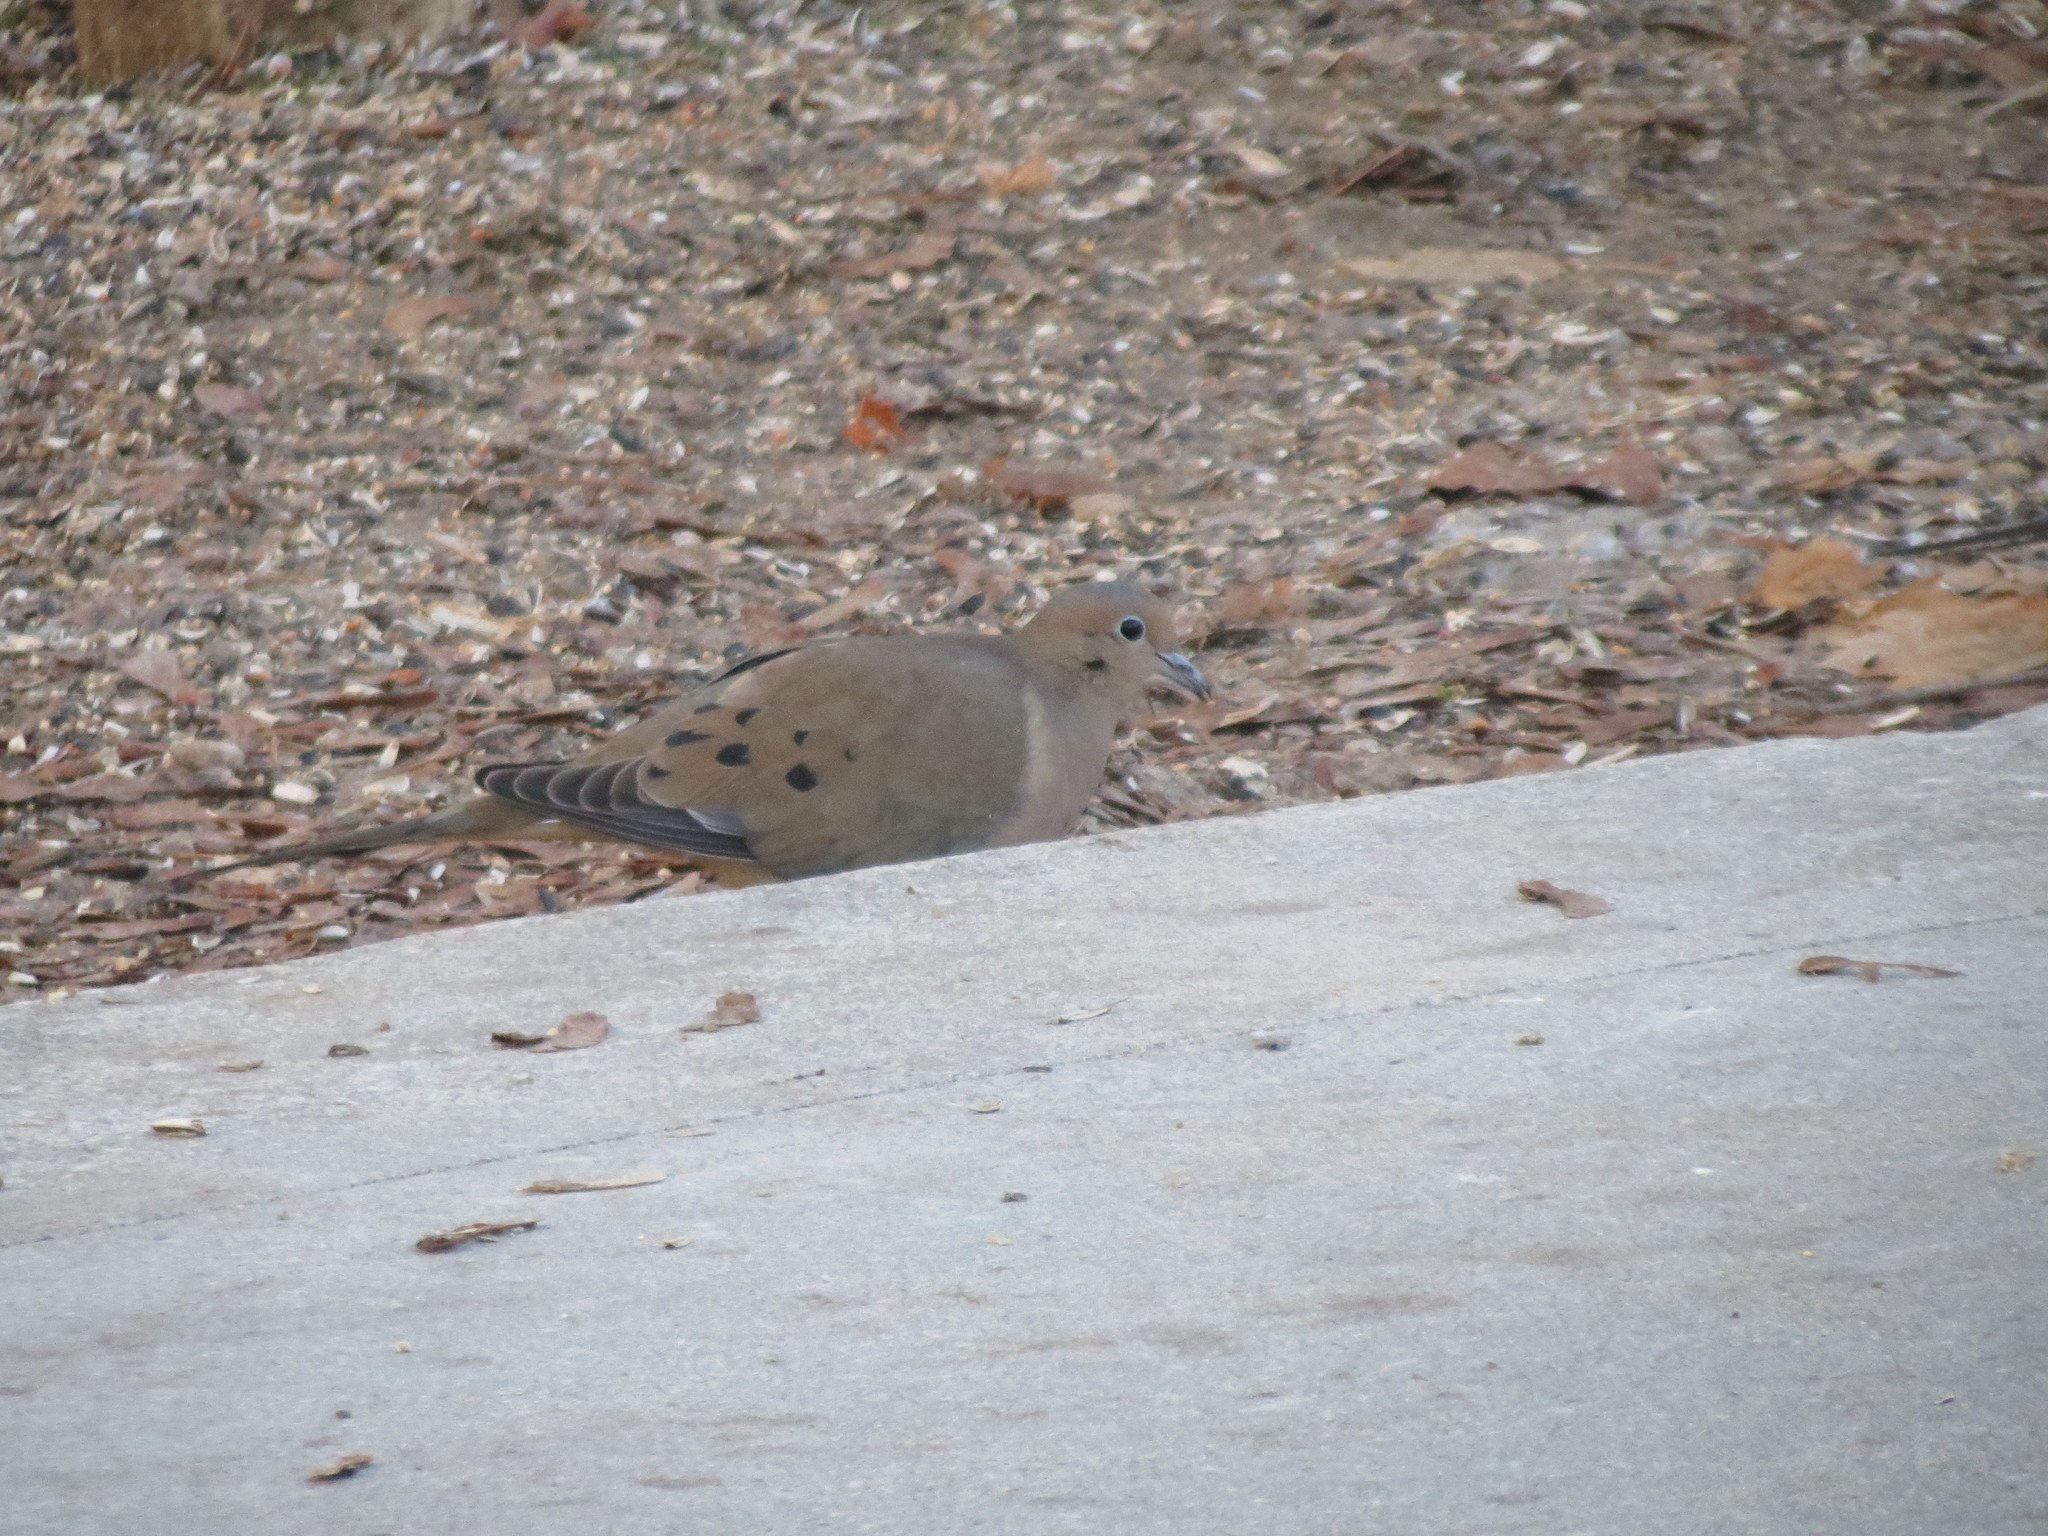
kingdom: Animalia
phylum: Chordata
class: Aves
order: Columbiformes
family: Columbidae
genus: Zenaida
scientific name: Zenaida macroura
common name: Mourning dove
